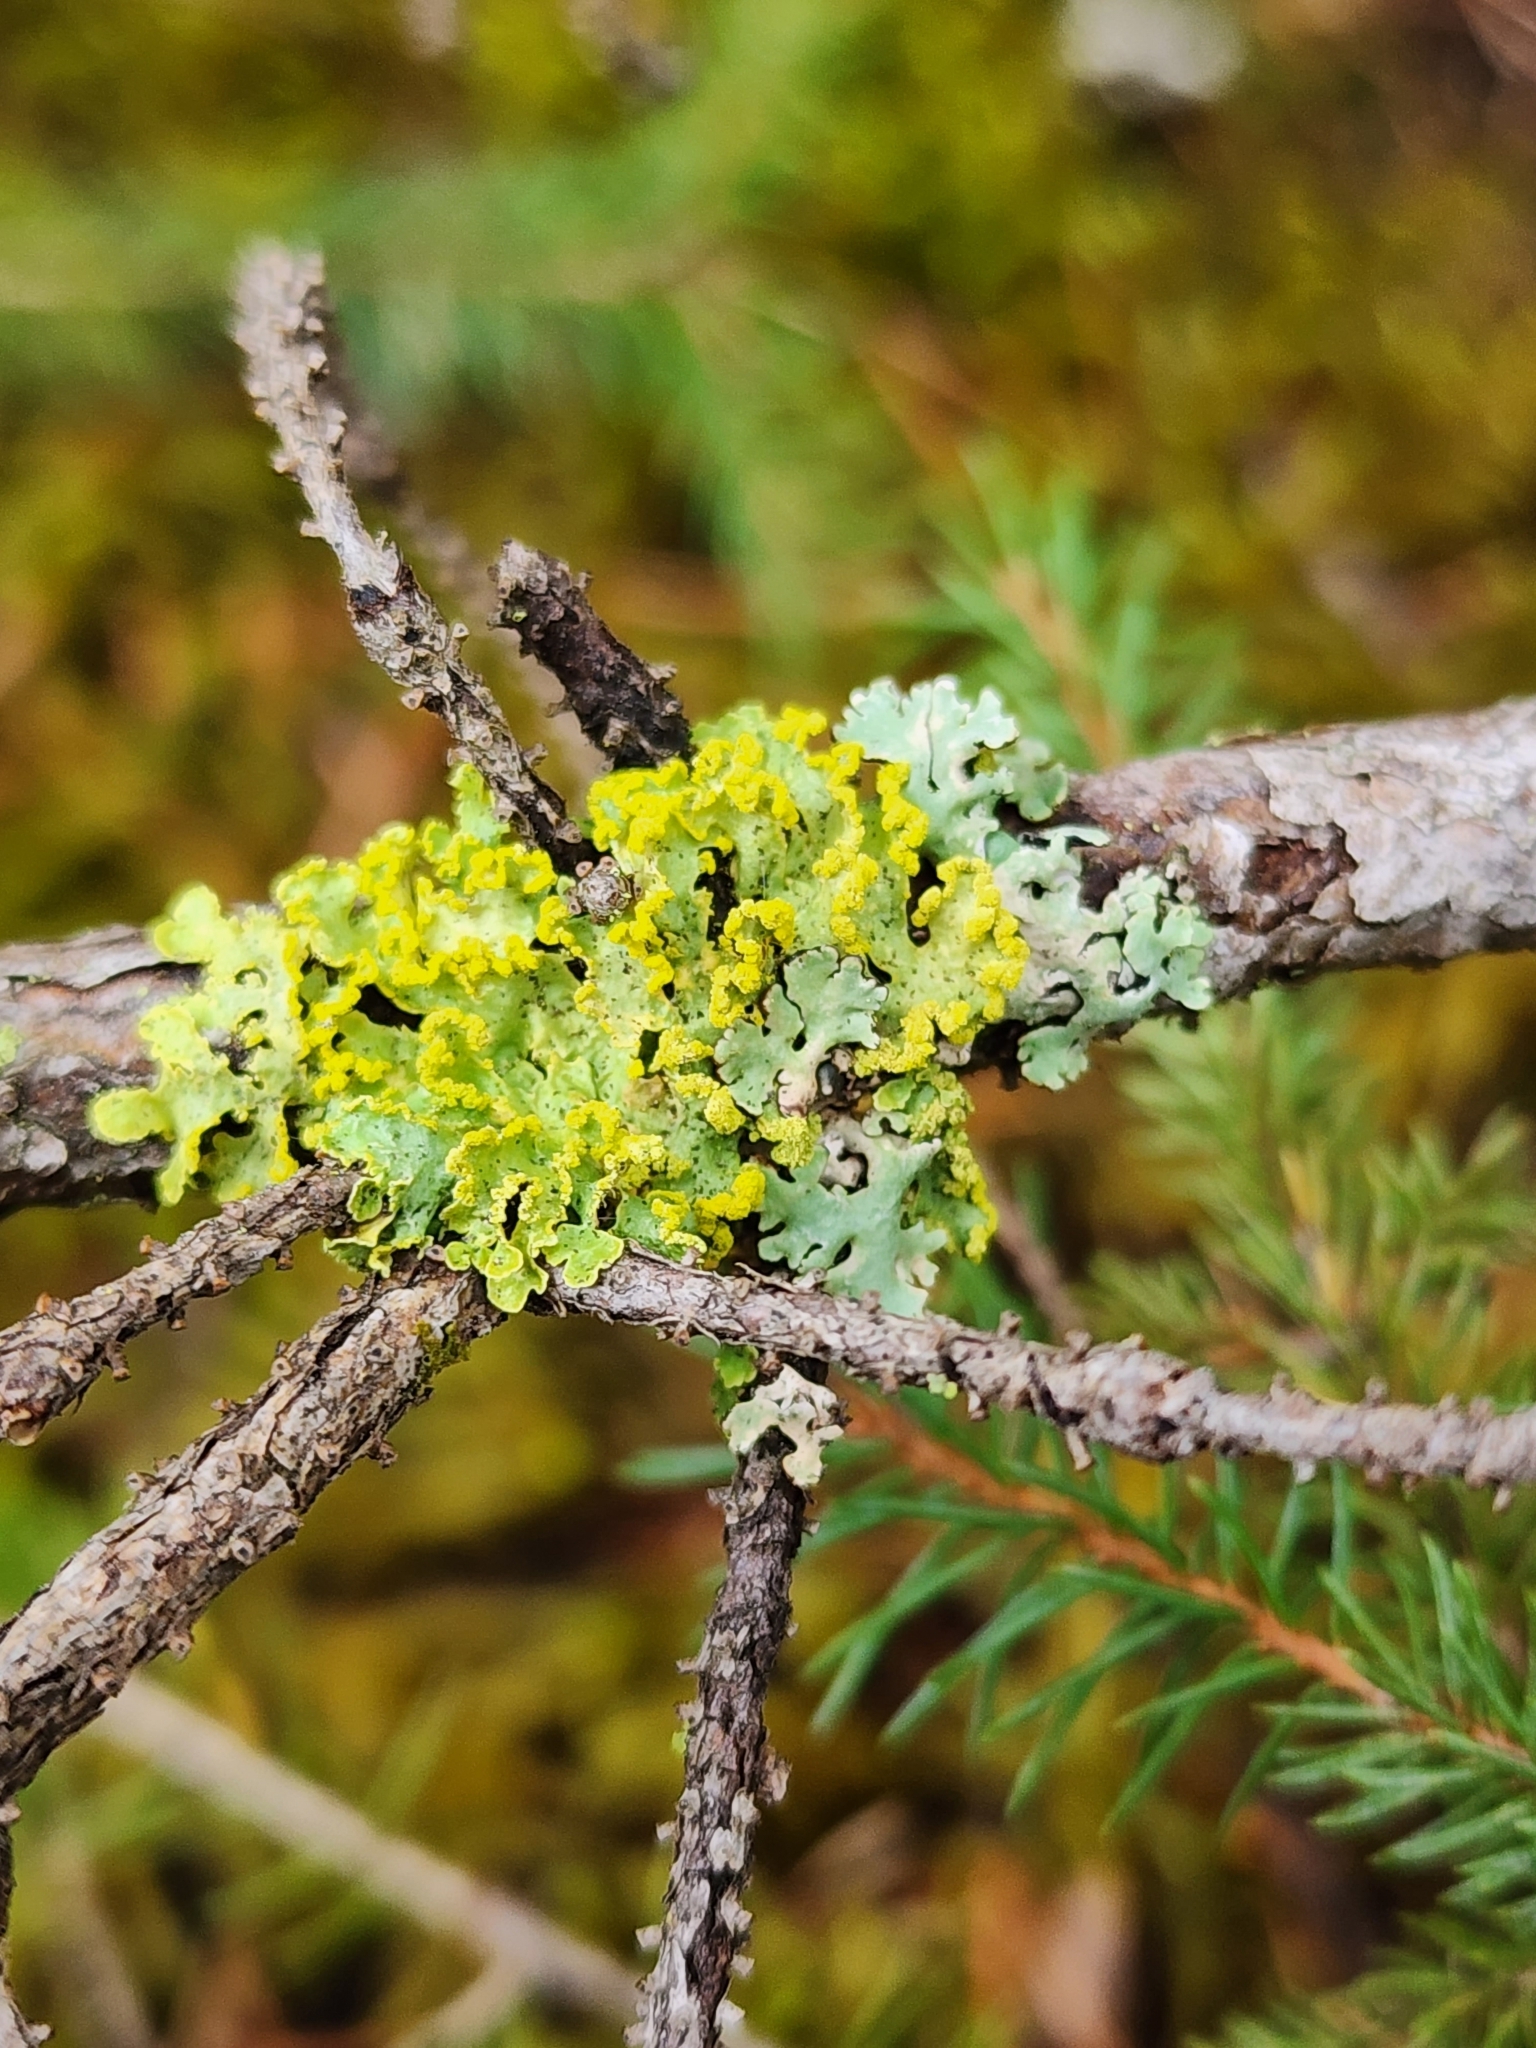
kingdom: Fungi
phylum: Ascomycota
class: Lecanoromycetes
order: Lecanorales
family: Parmeliaceae
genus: Vulpicida
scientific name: Vulpicida pinastri
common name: Powdered sunshine lichen
